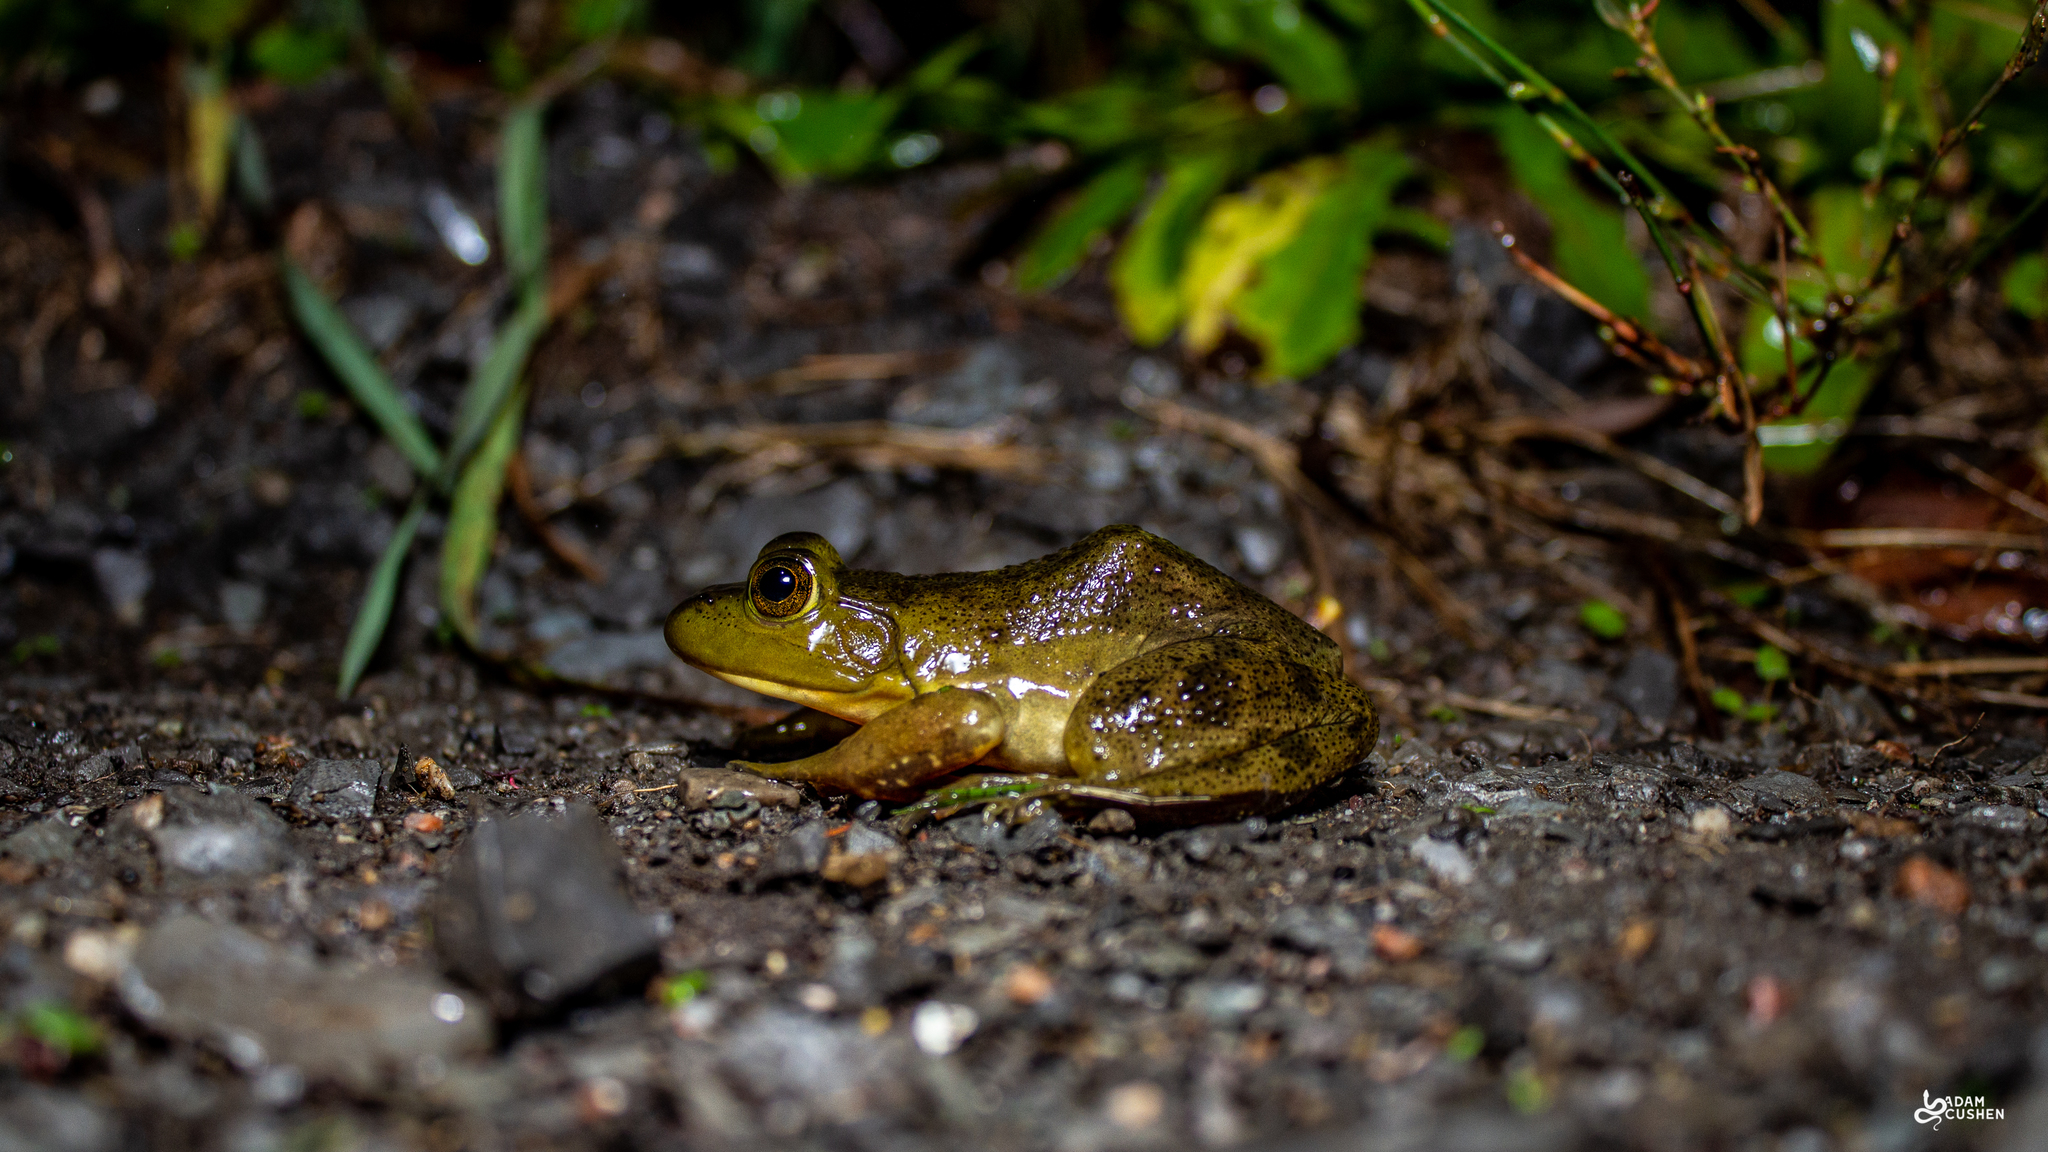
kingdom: Animalia
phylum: Chordata
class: Amphibia
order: Anura
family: Ranidae
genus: Lithobates
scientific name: Lithobates catesbeianus
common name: American bullfrog
